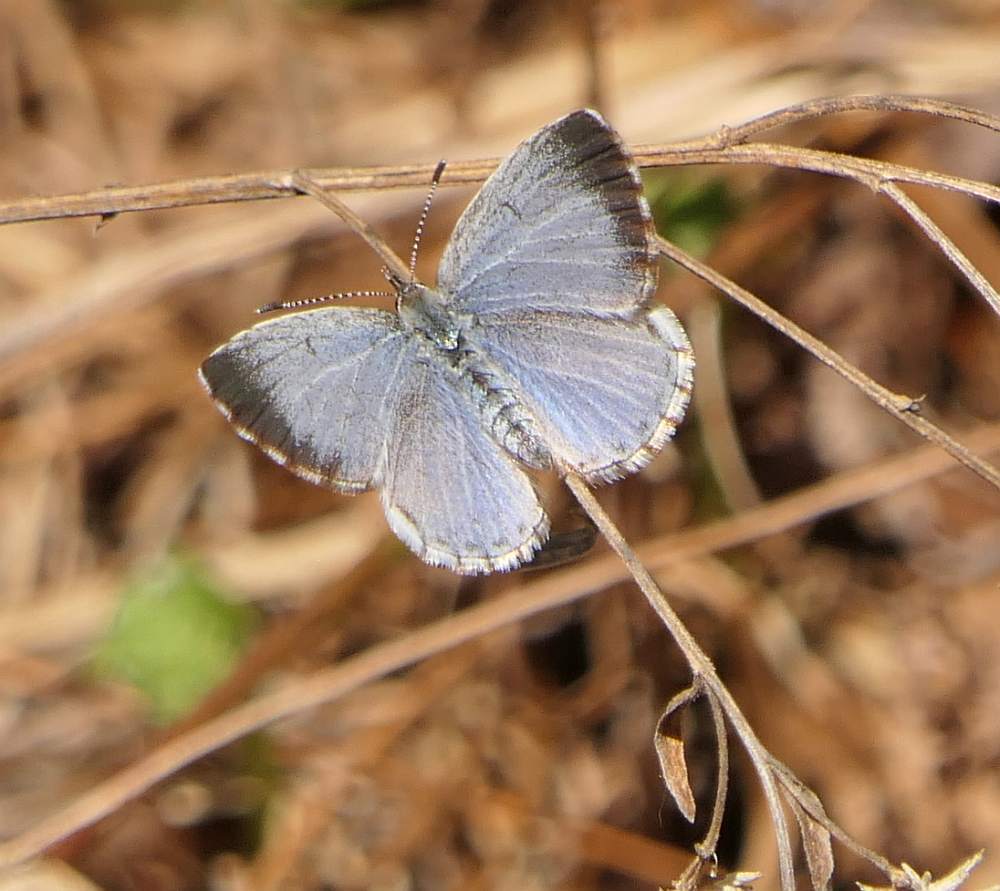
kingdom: Animalia
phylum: Arthropoda
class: Insecta
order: Lepidoptera
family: Lycaenidae
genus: Celastrina
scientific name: Celastrina lucia
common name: Lucia azure
